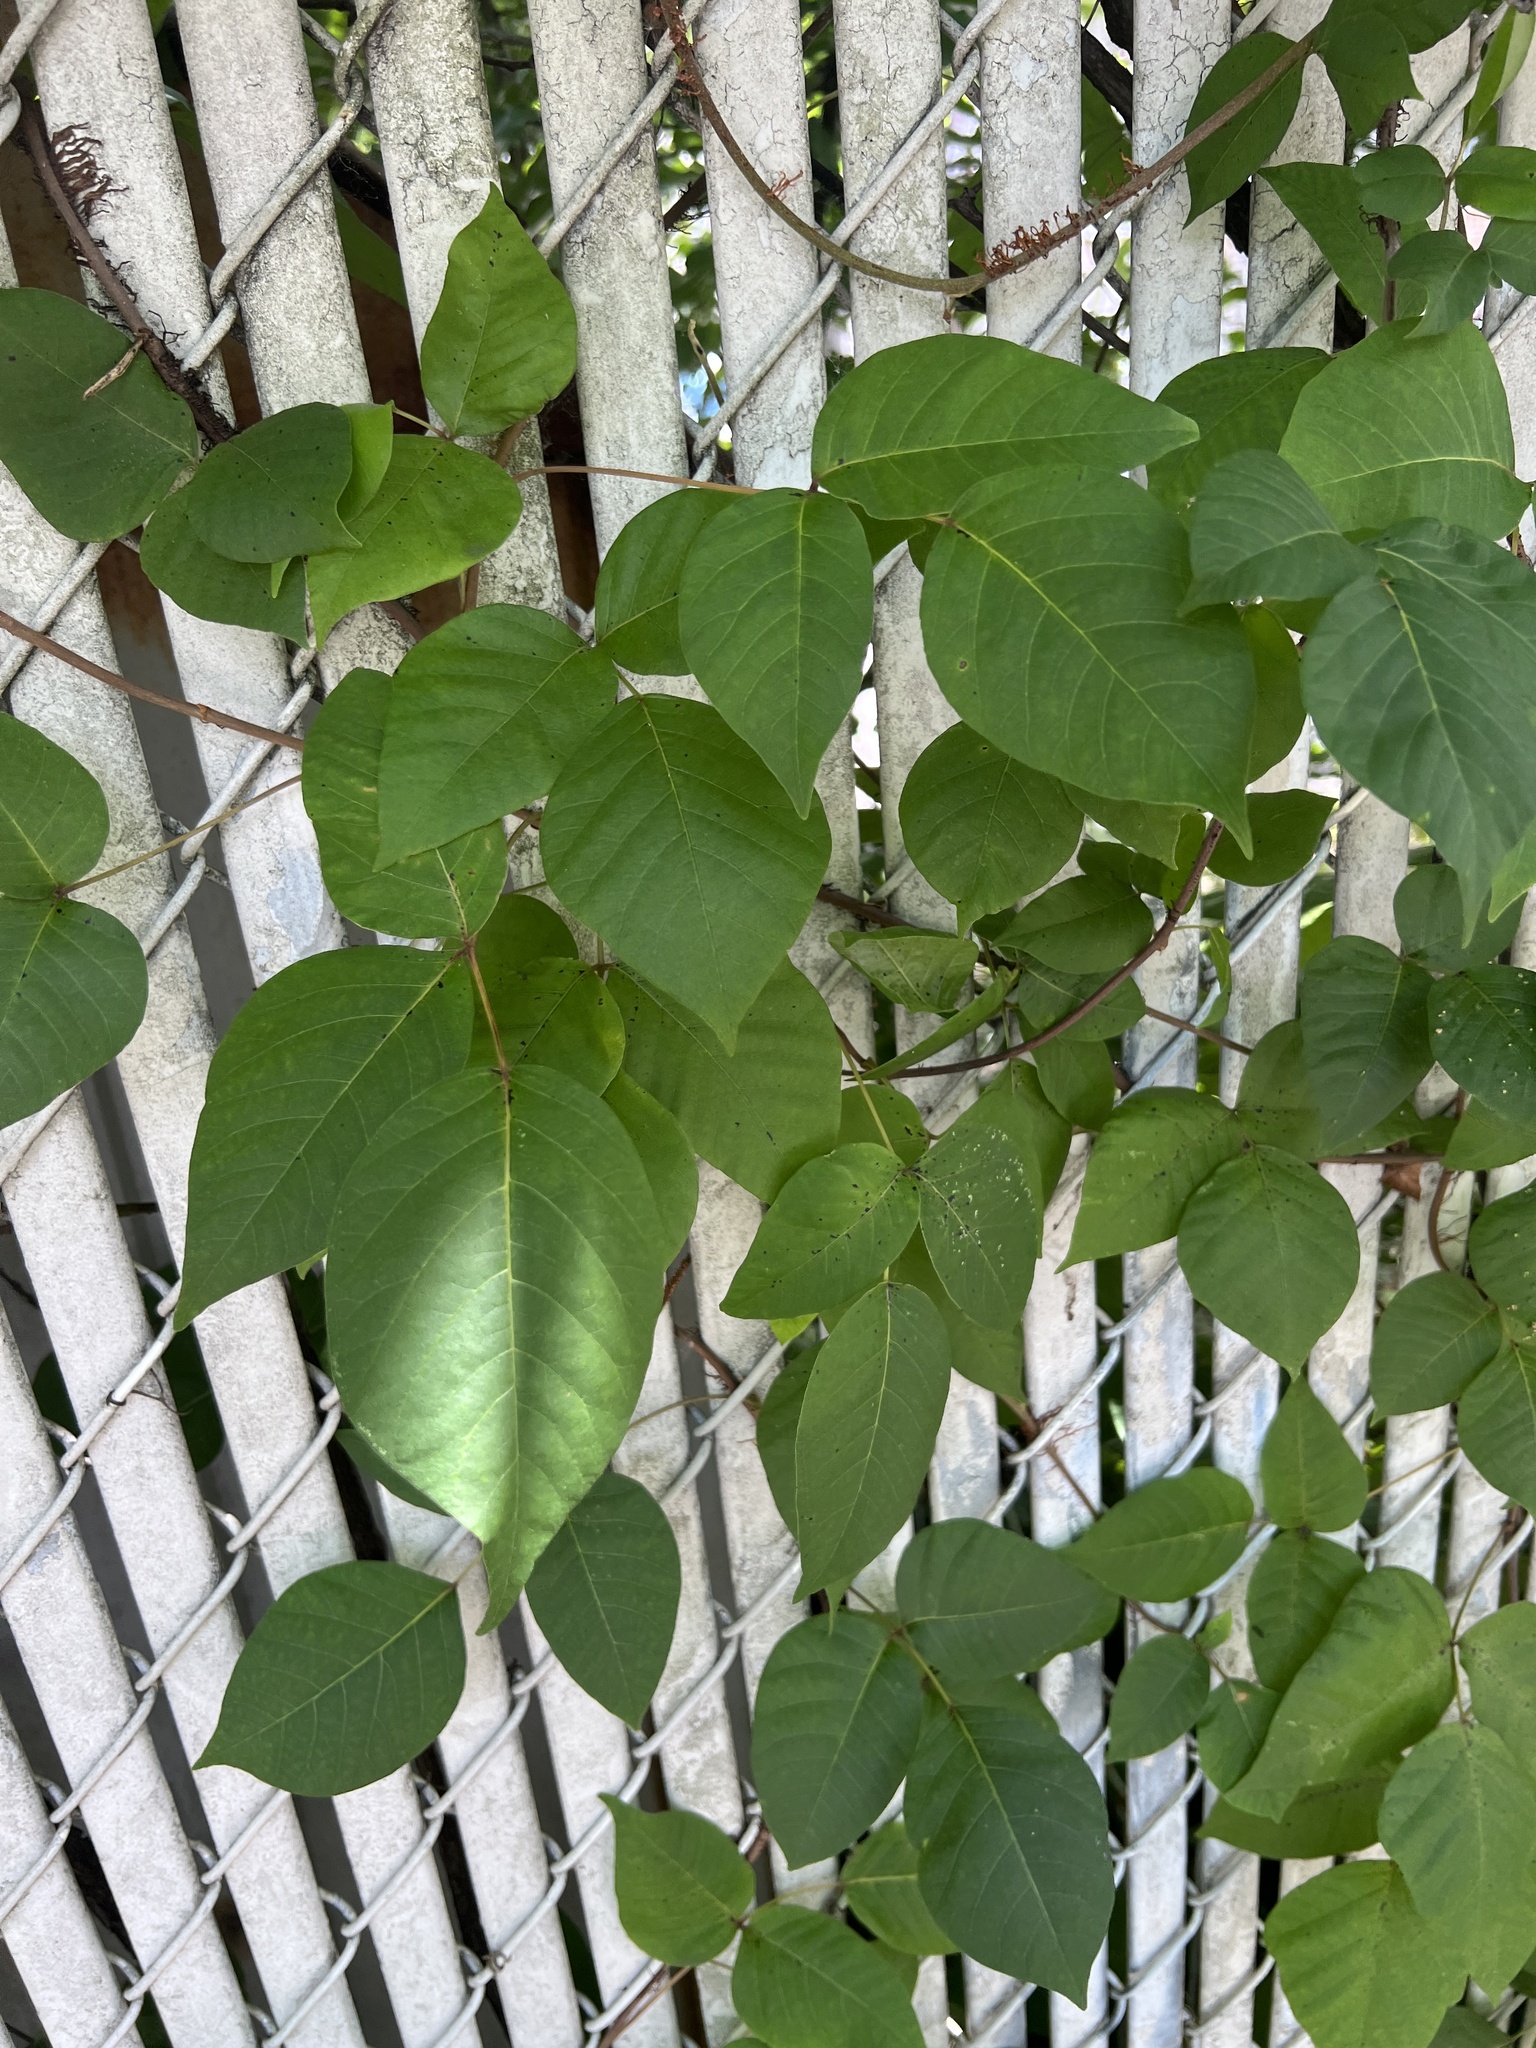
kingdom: Plantae
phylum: Tracheophyta
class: Magnoliopsida
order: Sapindales
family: Anacardiaceae
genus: Toxicodendron
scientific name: Toxicodendron radicans
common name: Poison ivy
